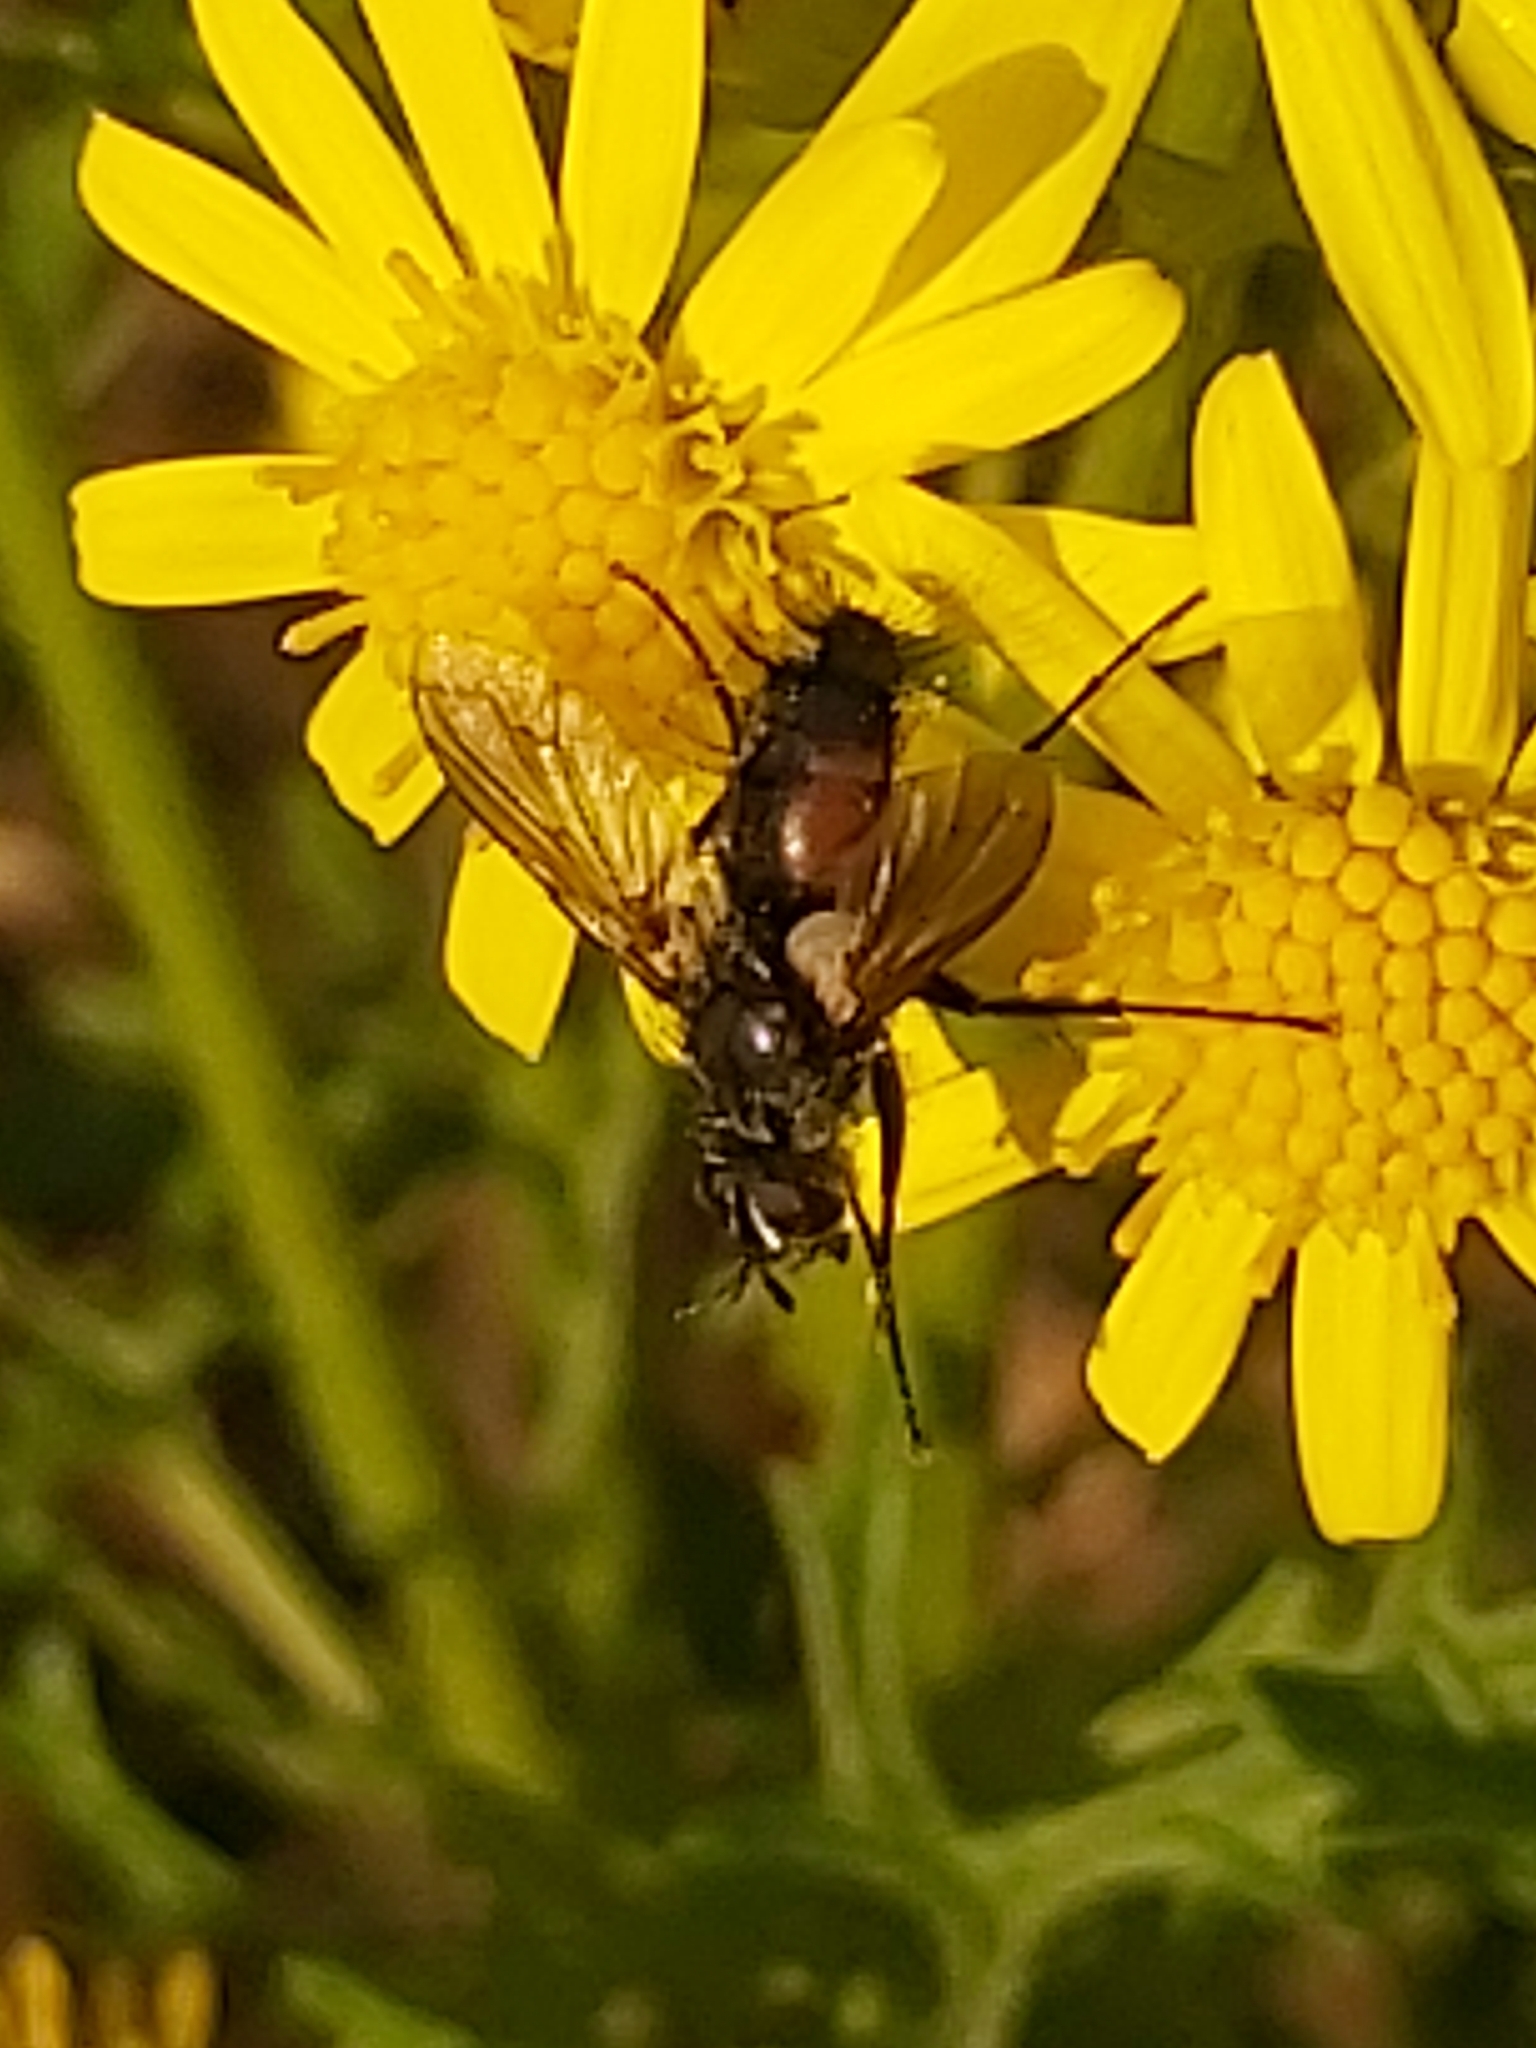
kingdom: Animalia
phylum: Arthropoda
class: Insecta
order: Diptera
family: Tachinidae
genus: Eriothrix
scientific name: Eriothrix rufomaculatus
